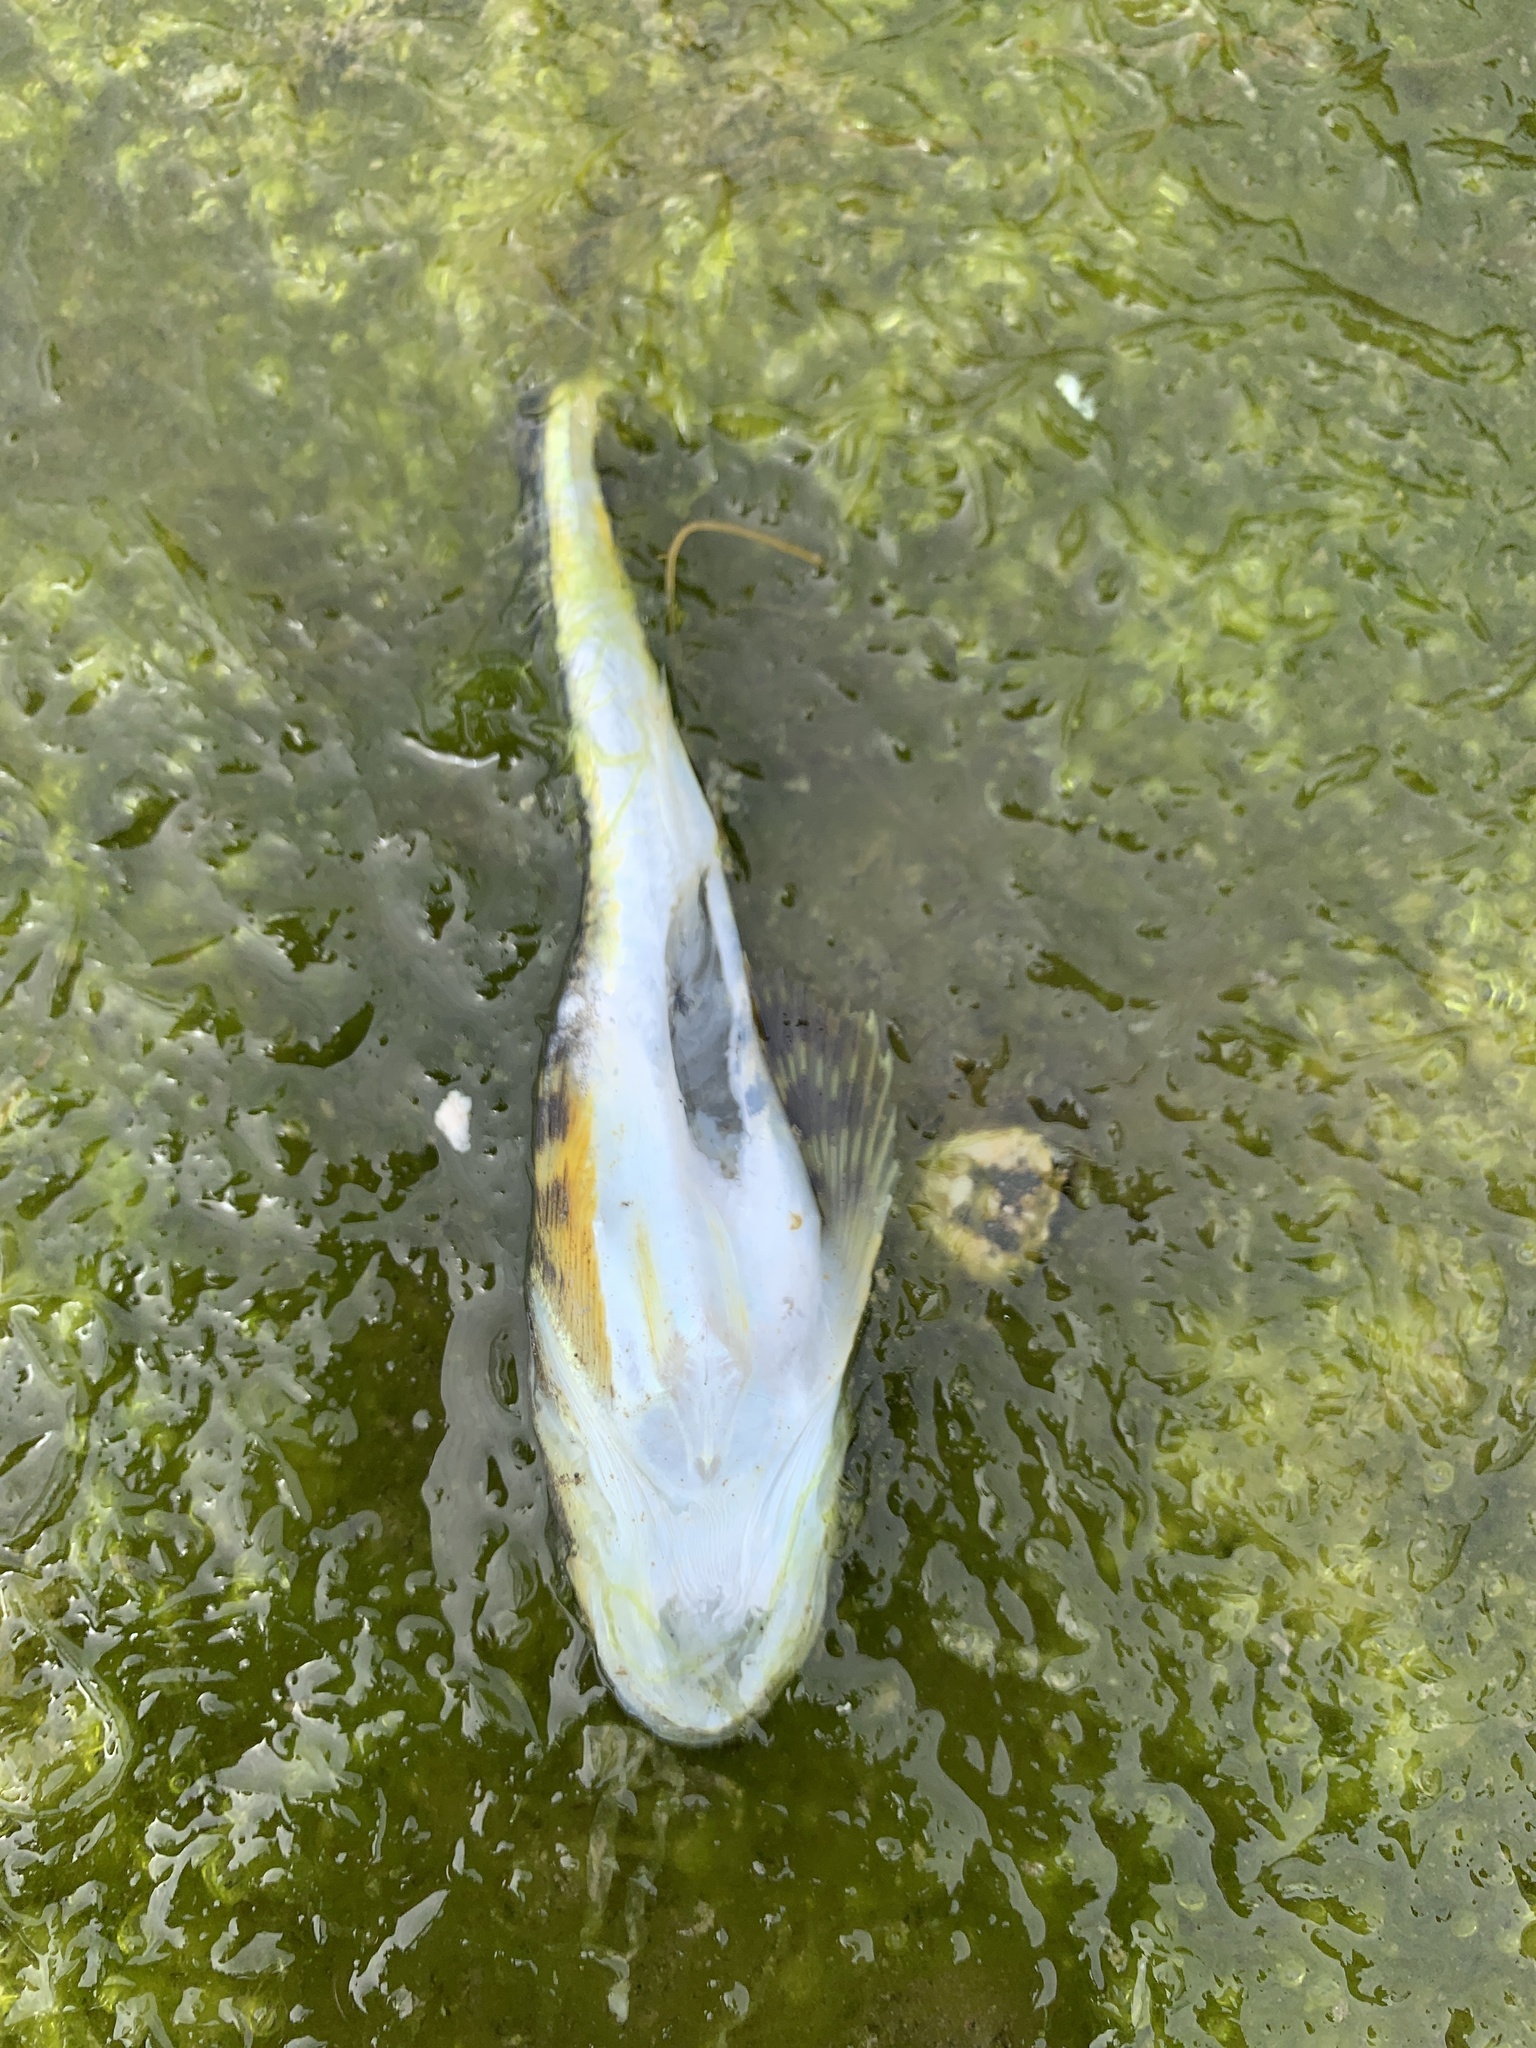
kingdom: Animalia
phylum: Chordata
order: Scorpaeniformes
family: Cottidae
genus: Leptocottus
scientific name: Leptocottus armatus
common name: Pacific staghorn sculpin
